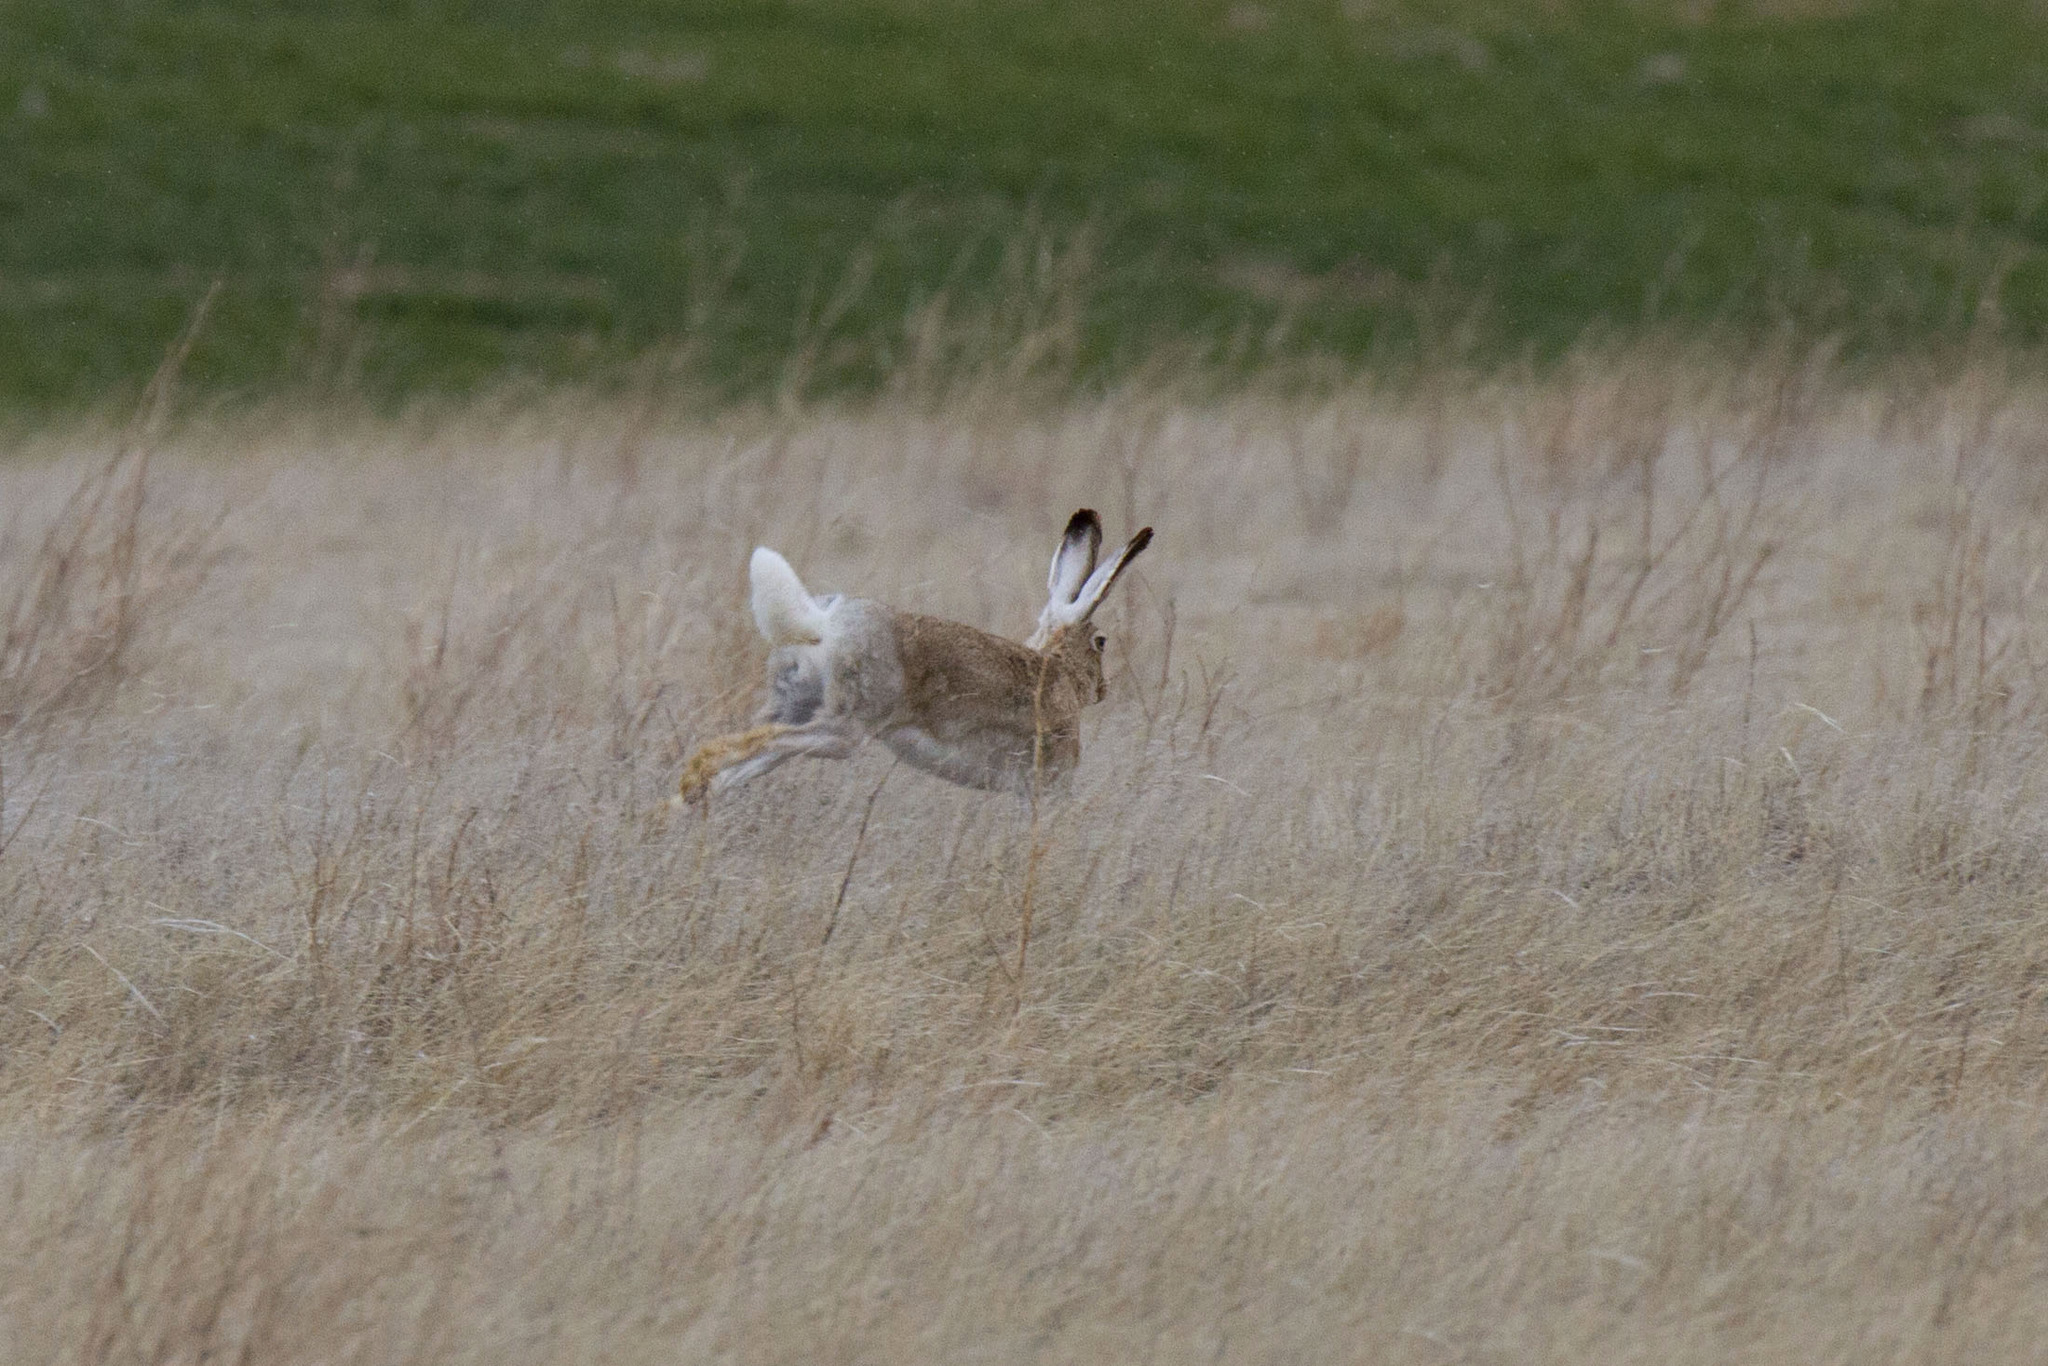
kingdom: Animalia
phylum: Chordata
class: Mammalia
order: Lagomorpha
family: Leporidae
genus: Lepus
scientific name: Lepus townsendii
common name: White-tailed jackrabbit
